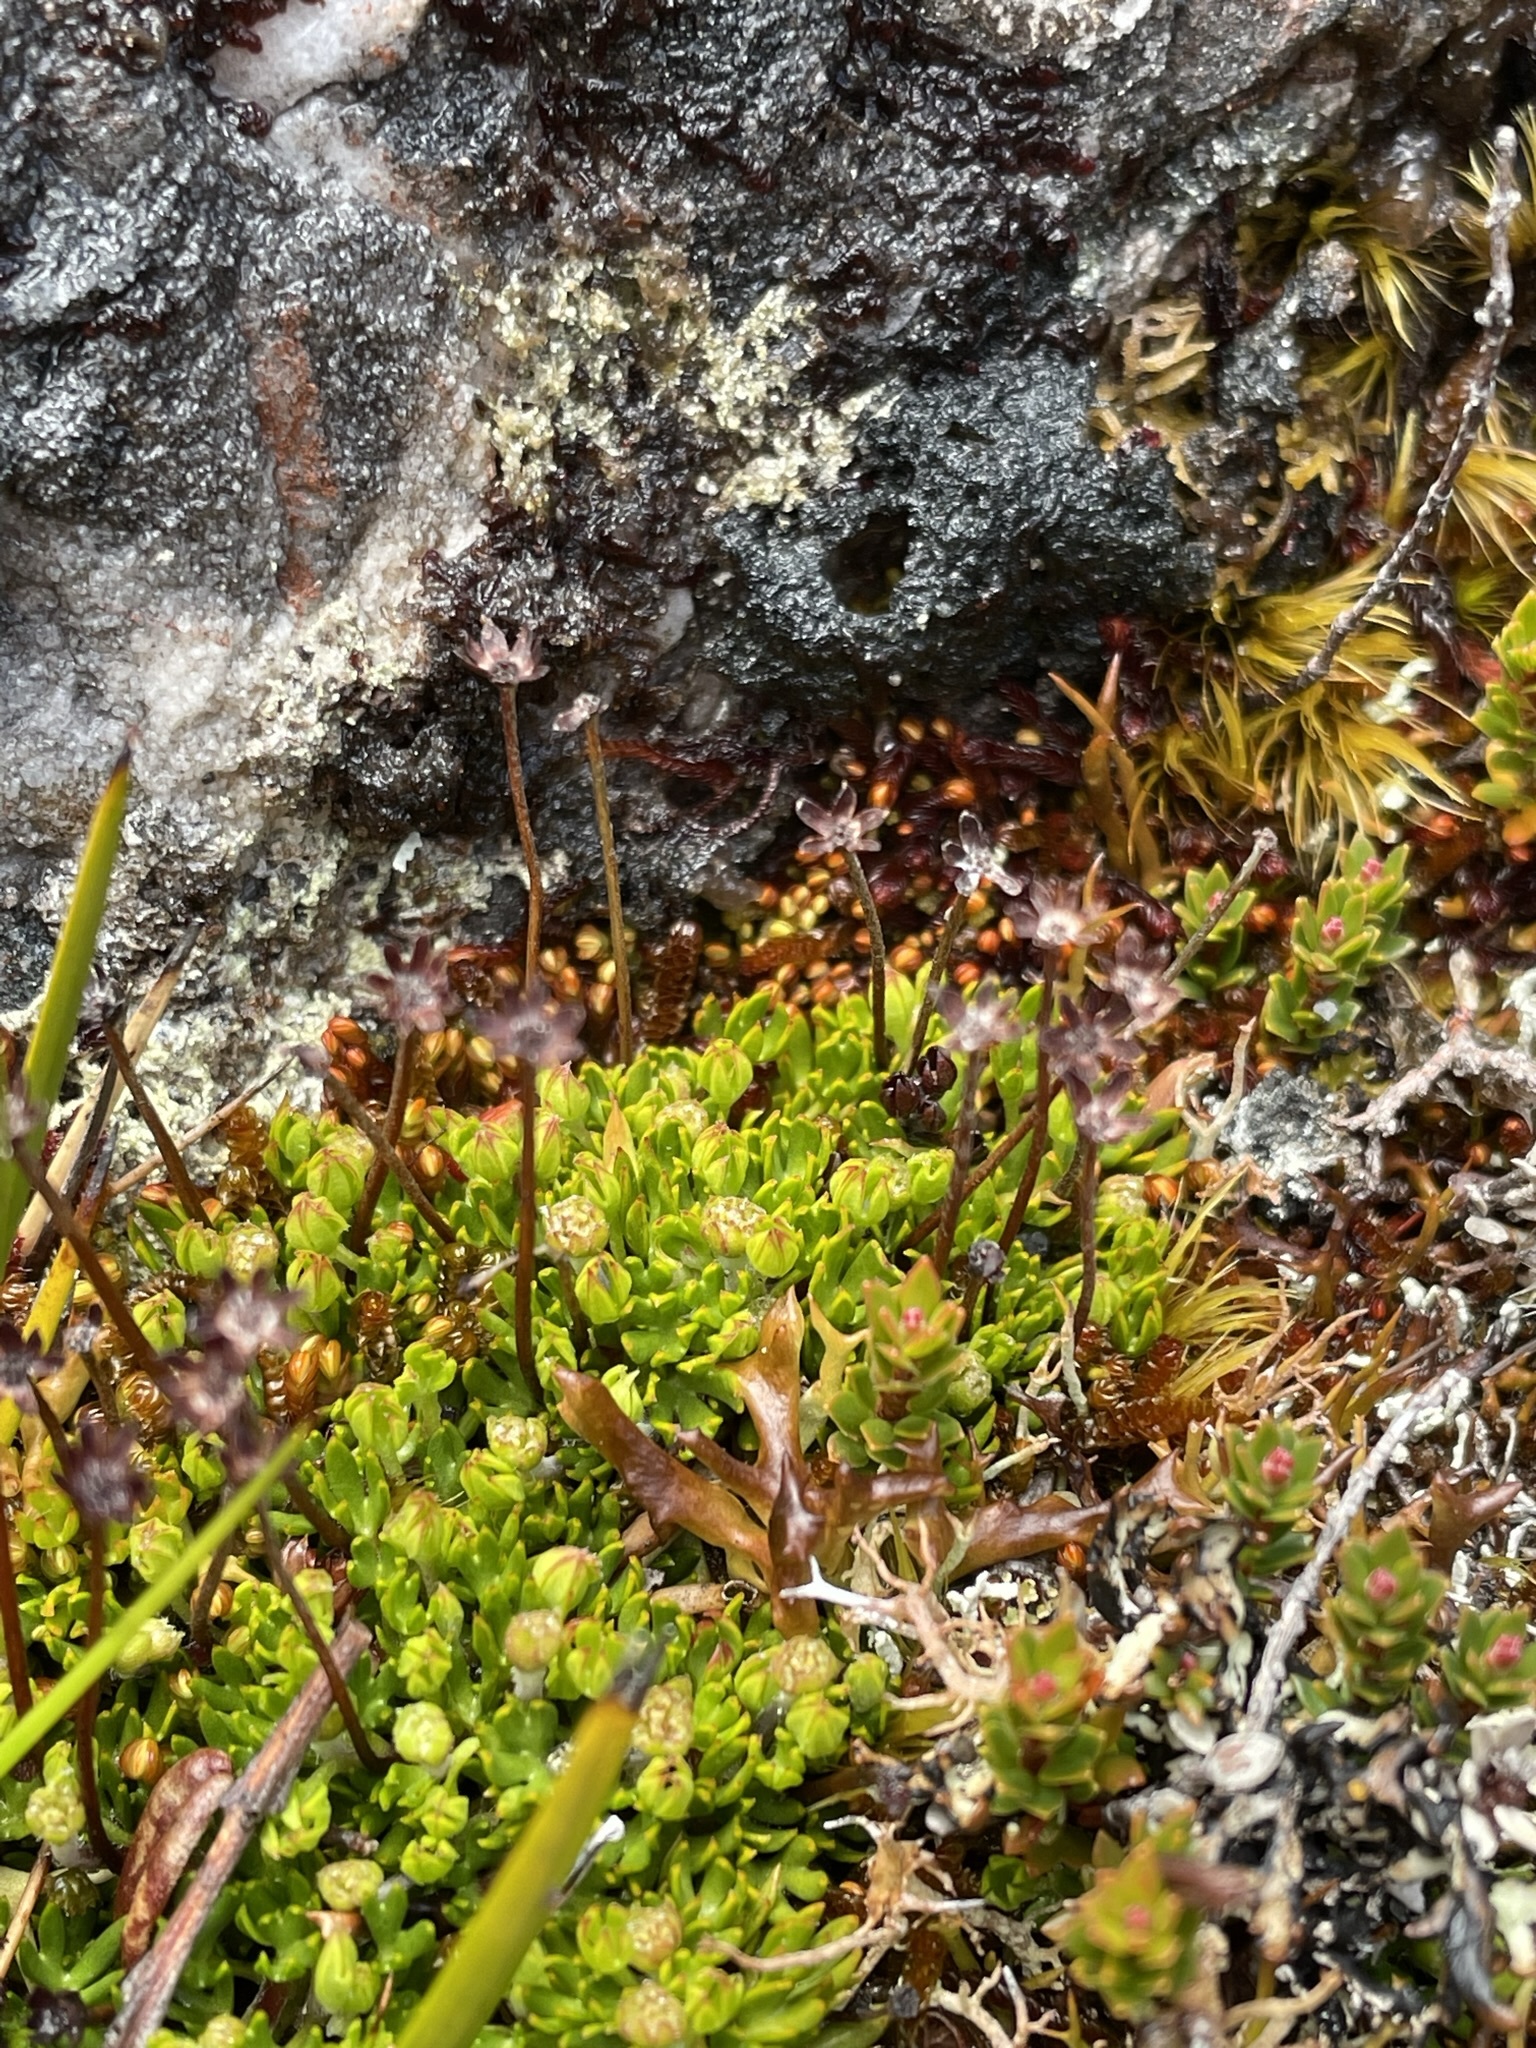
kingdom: Plantae
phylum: Tracheophyta
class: Magnoliopsida
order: Apiales
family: Apiaceae
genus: Actinotus
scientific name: Actinotus moorei
